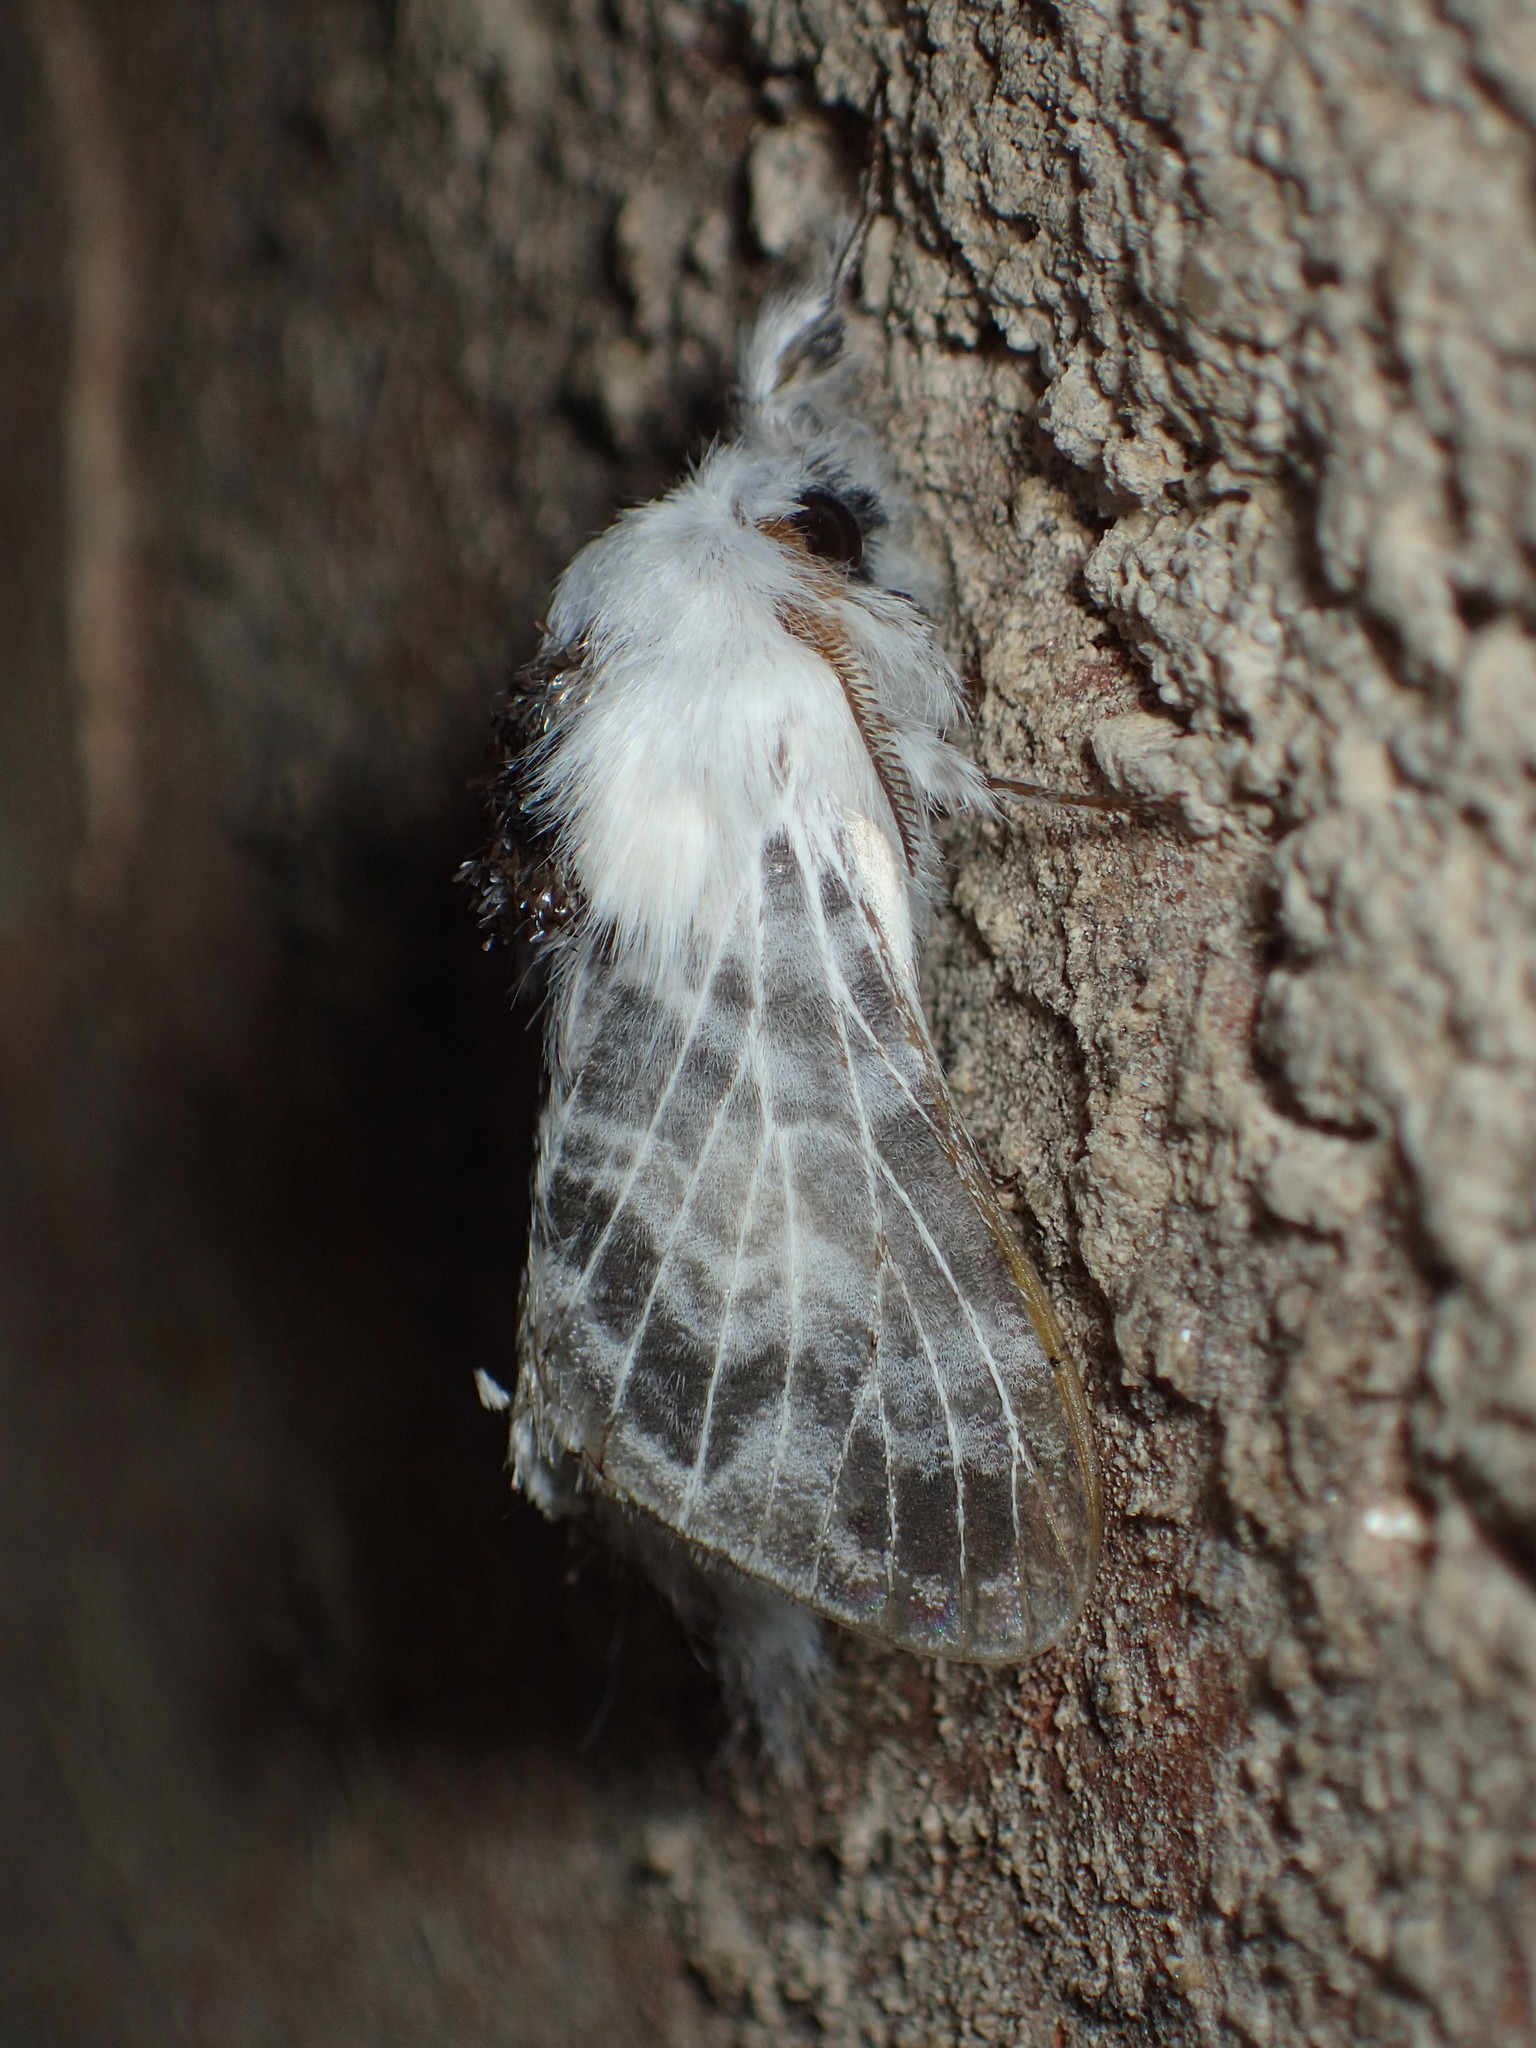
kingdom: Animalia
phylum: Arthropoda
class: Insecta
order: Lepidoptera
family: Lasiocampidae
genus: Tolype
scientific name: Tolype notialis
